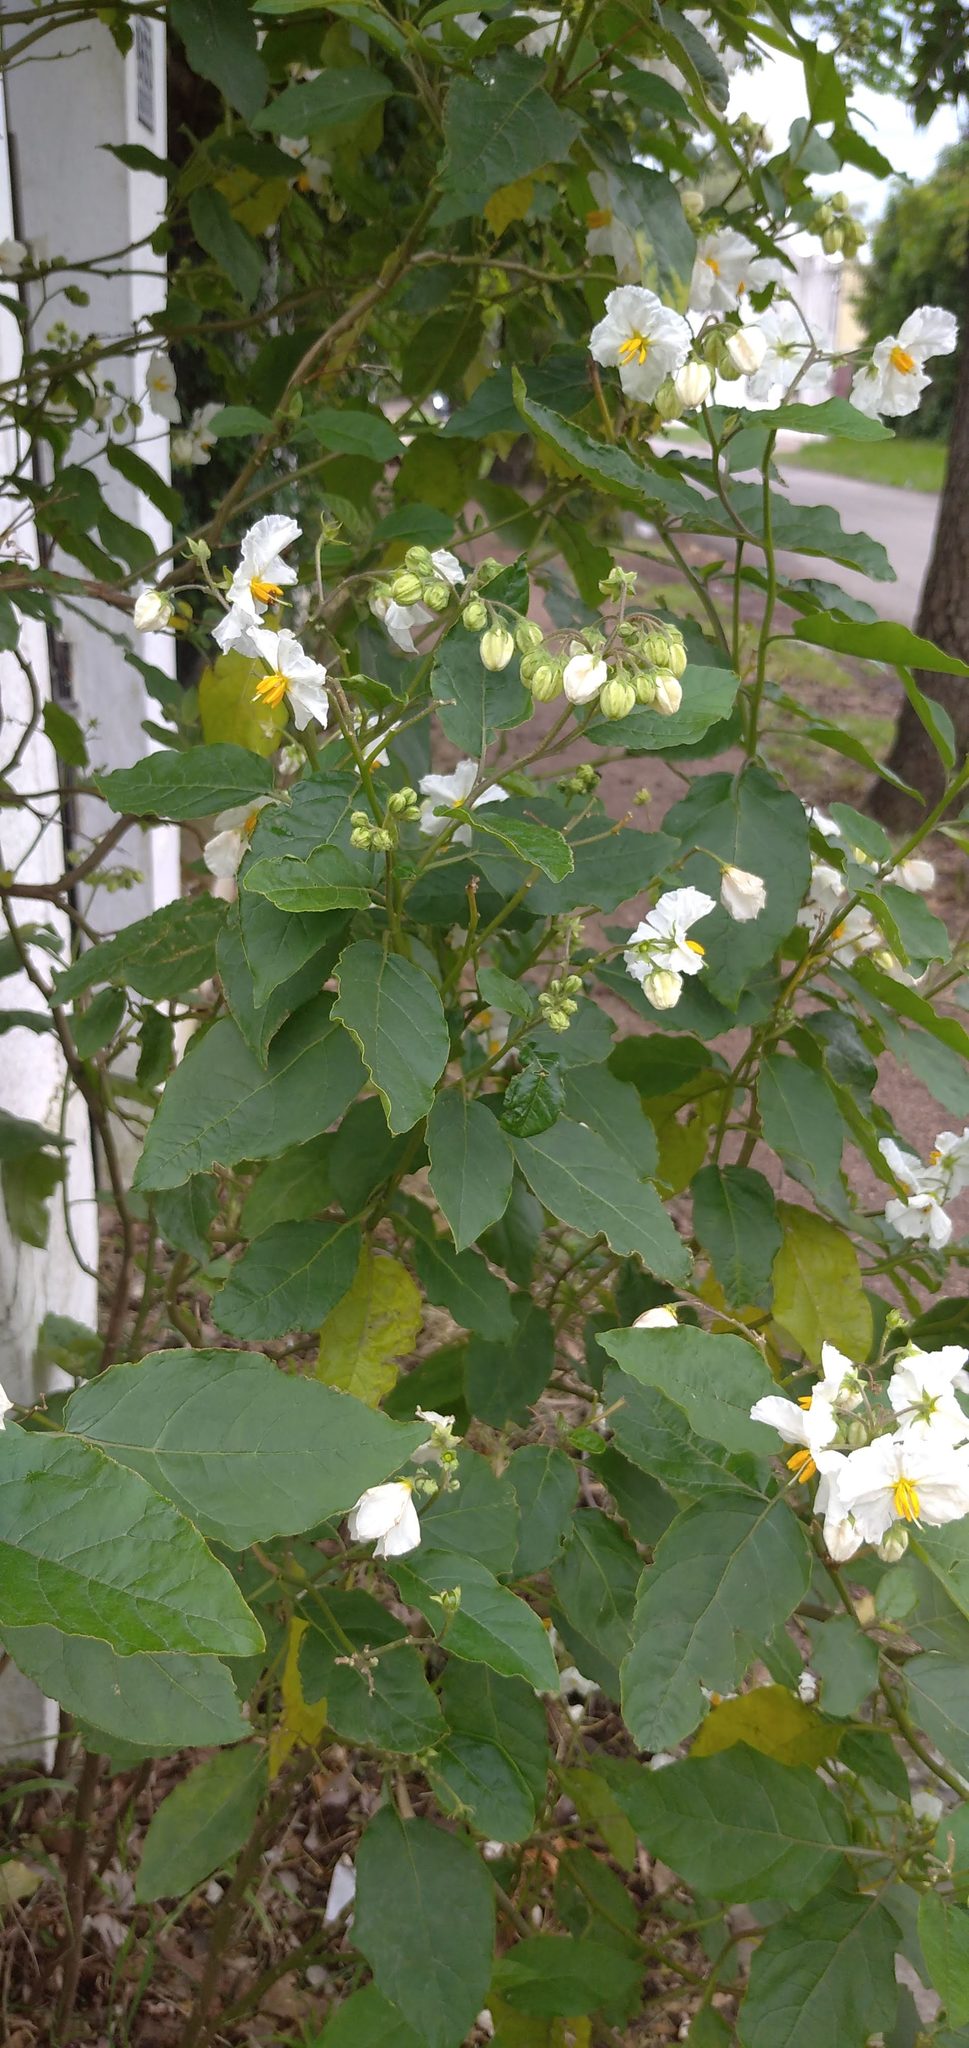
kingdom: Plantae
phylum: Tracheophyta
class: Magnoliopsida
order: Solanales
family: Solanaceae
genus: Solanum
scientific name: Solanum bonariense
